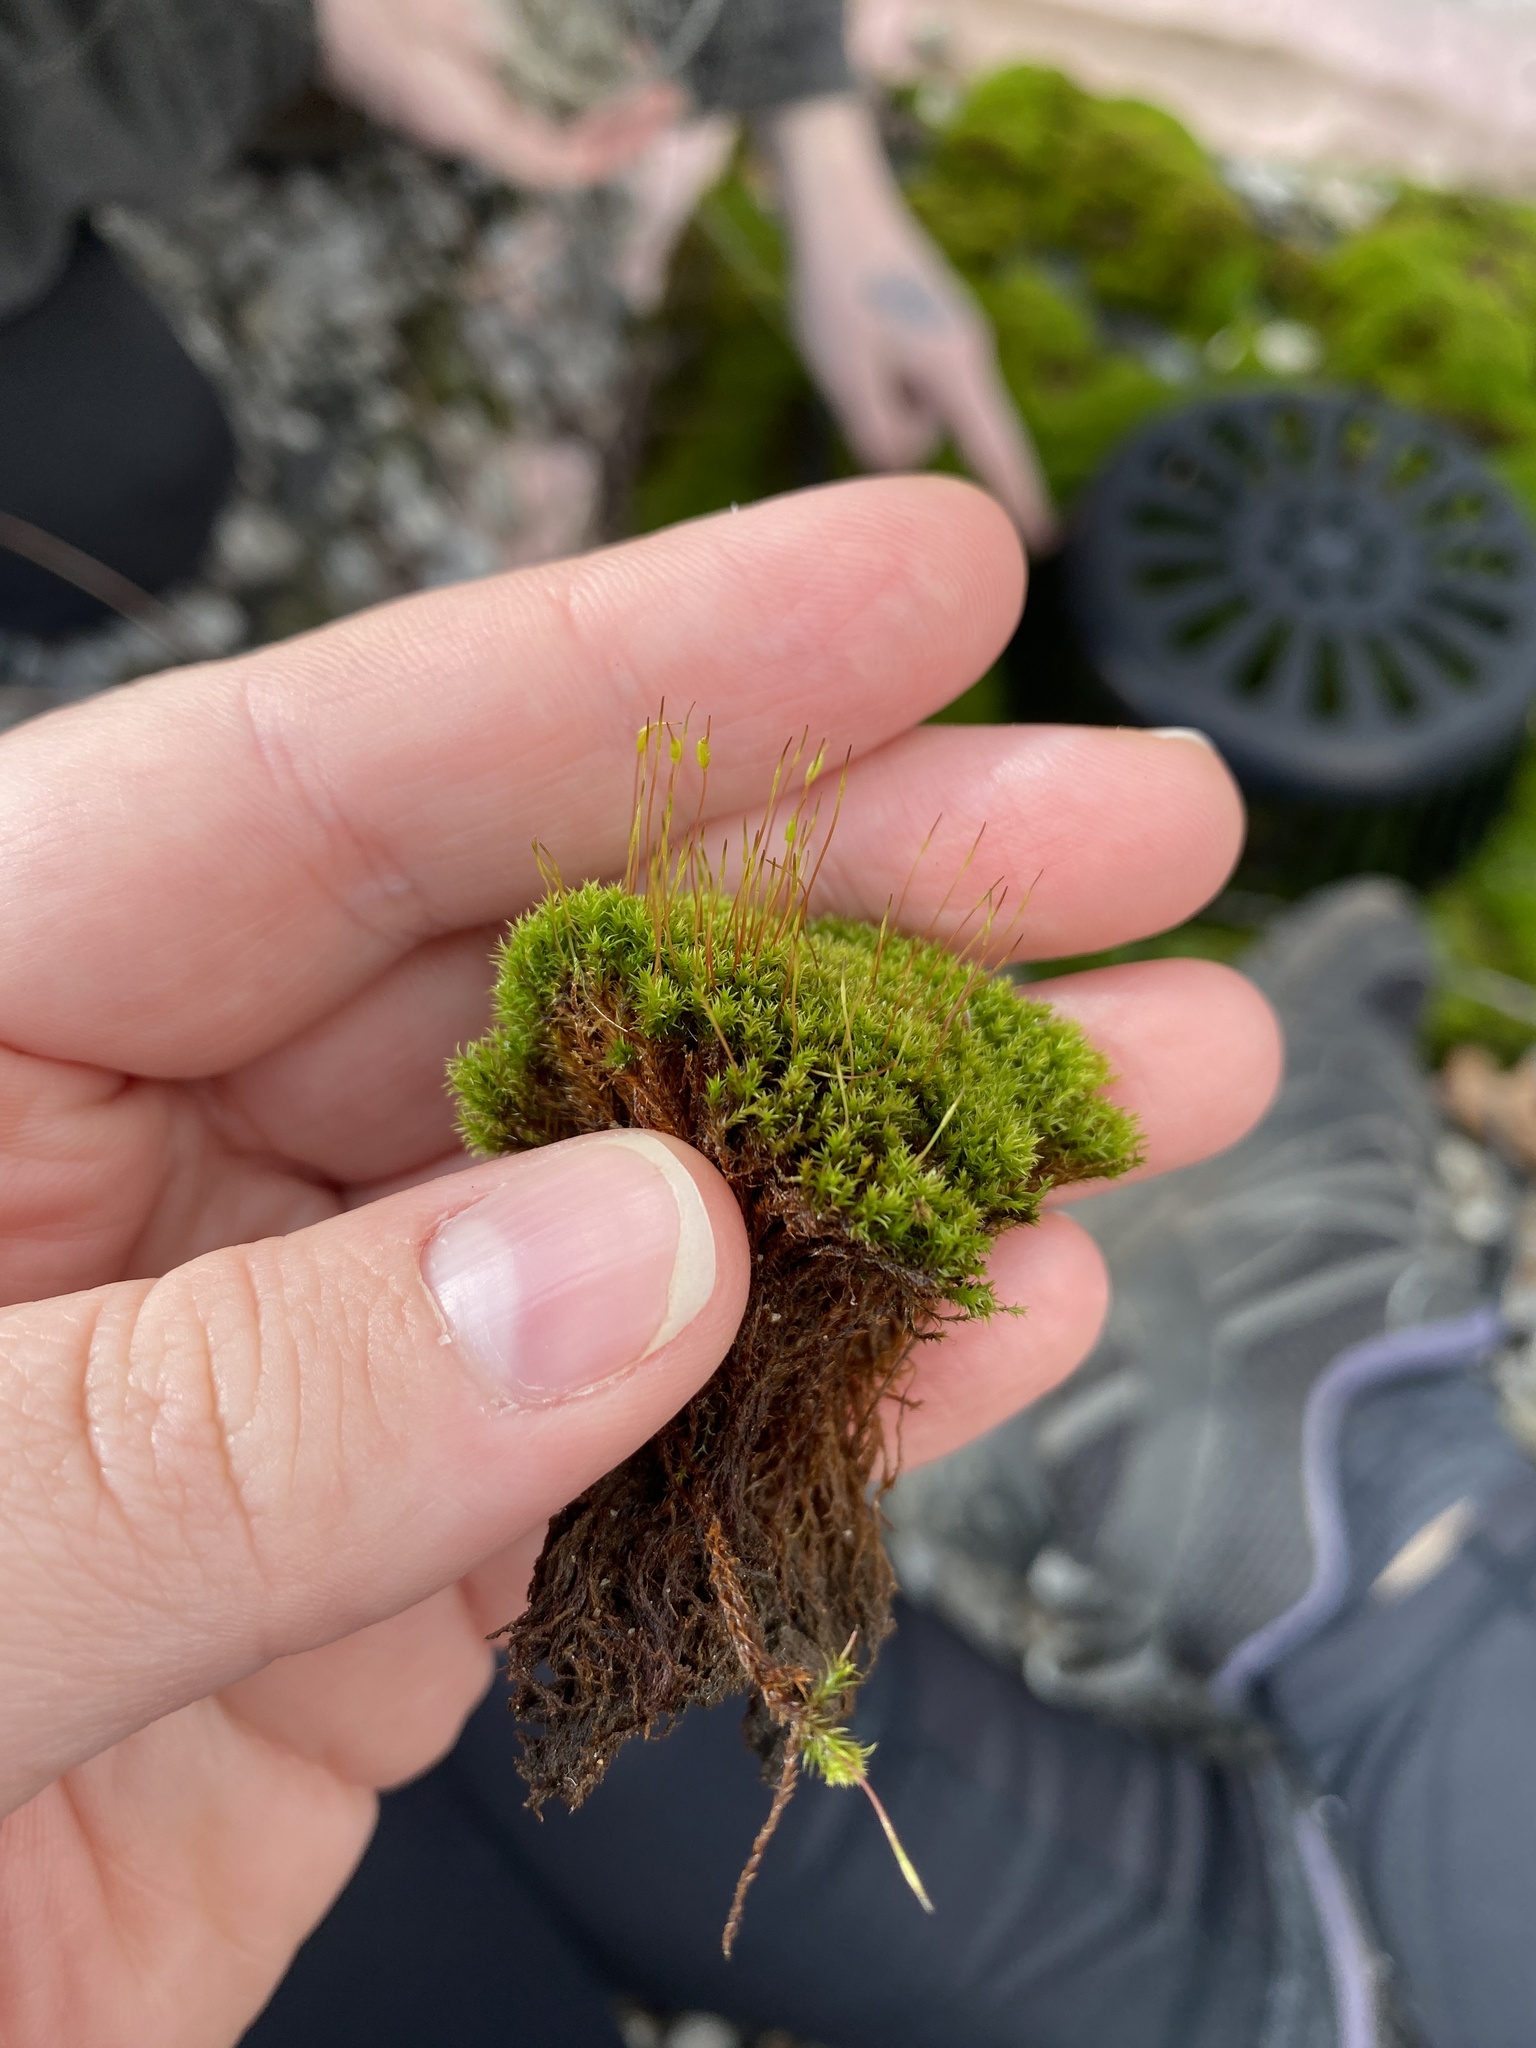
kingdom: Plantae
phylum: Bryophyta
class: Bryopsida
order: Dicranales
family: Ditrichaceae
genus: Ceratodon
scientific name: Ceratodon purpureus
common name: Redshank
